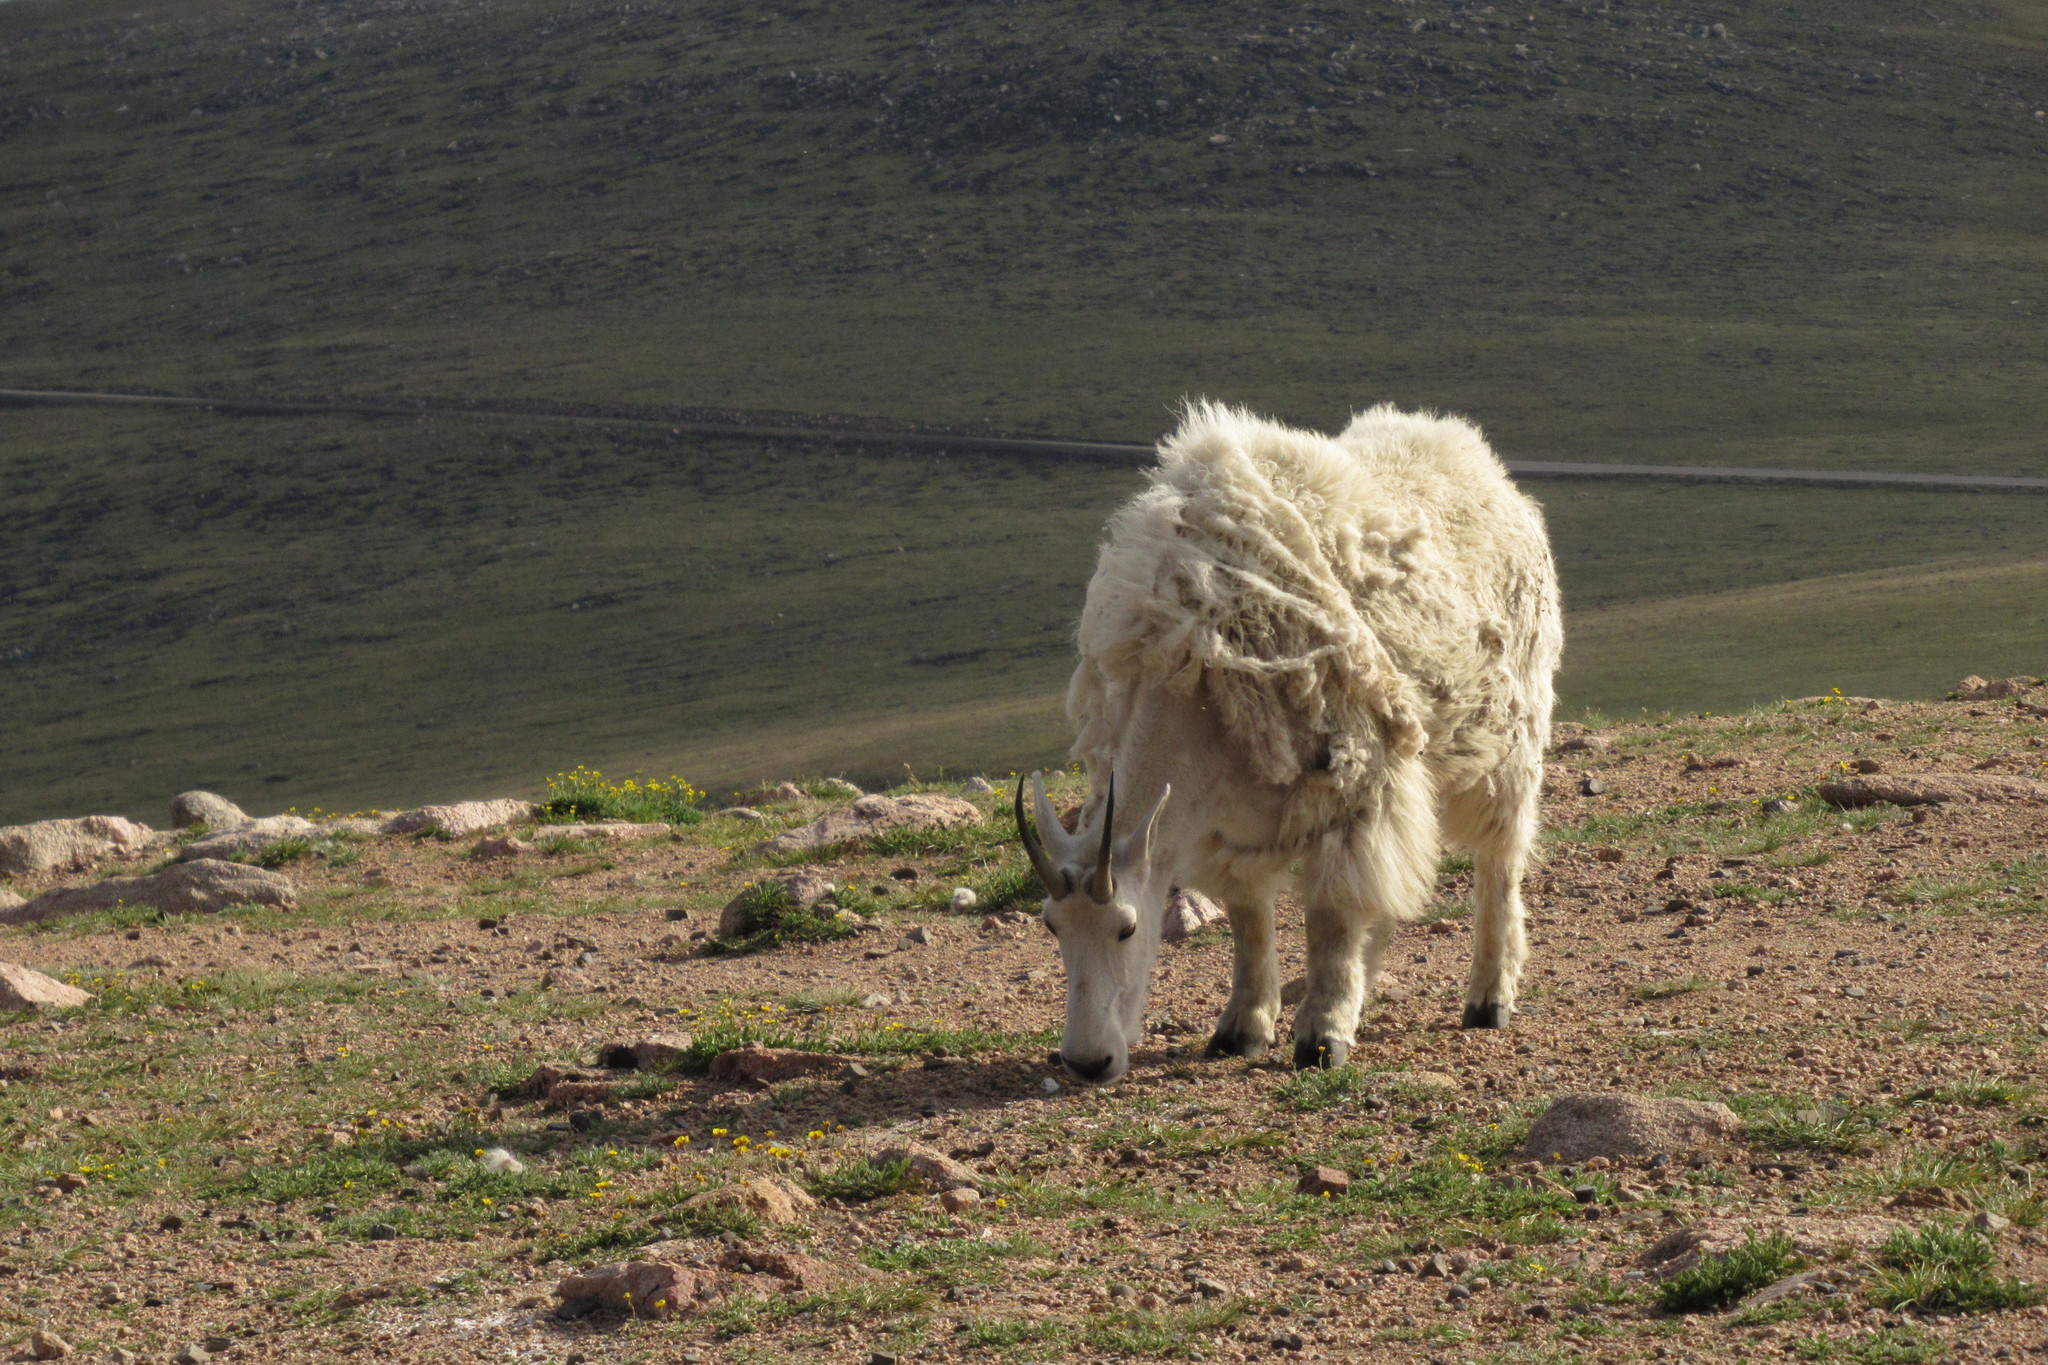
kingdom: Animalia
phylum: Chordata
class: Mammalia
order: Artiodactyla
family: Bovidae
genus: Oreamnos
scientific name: Oreamnos americanus
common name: Mountain goat
